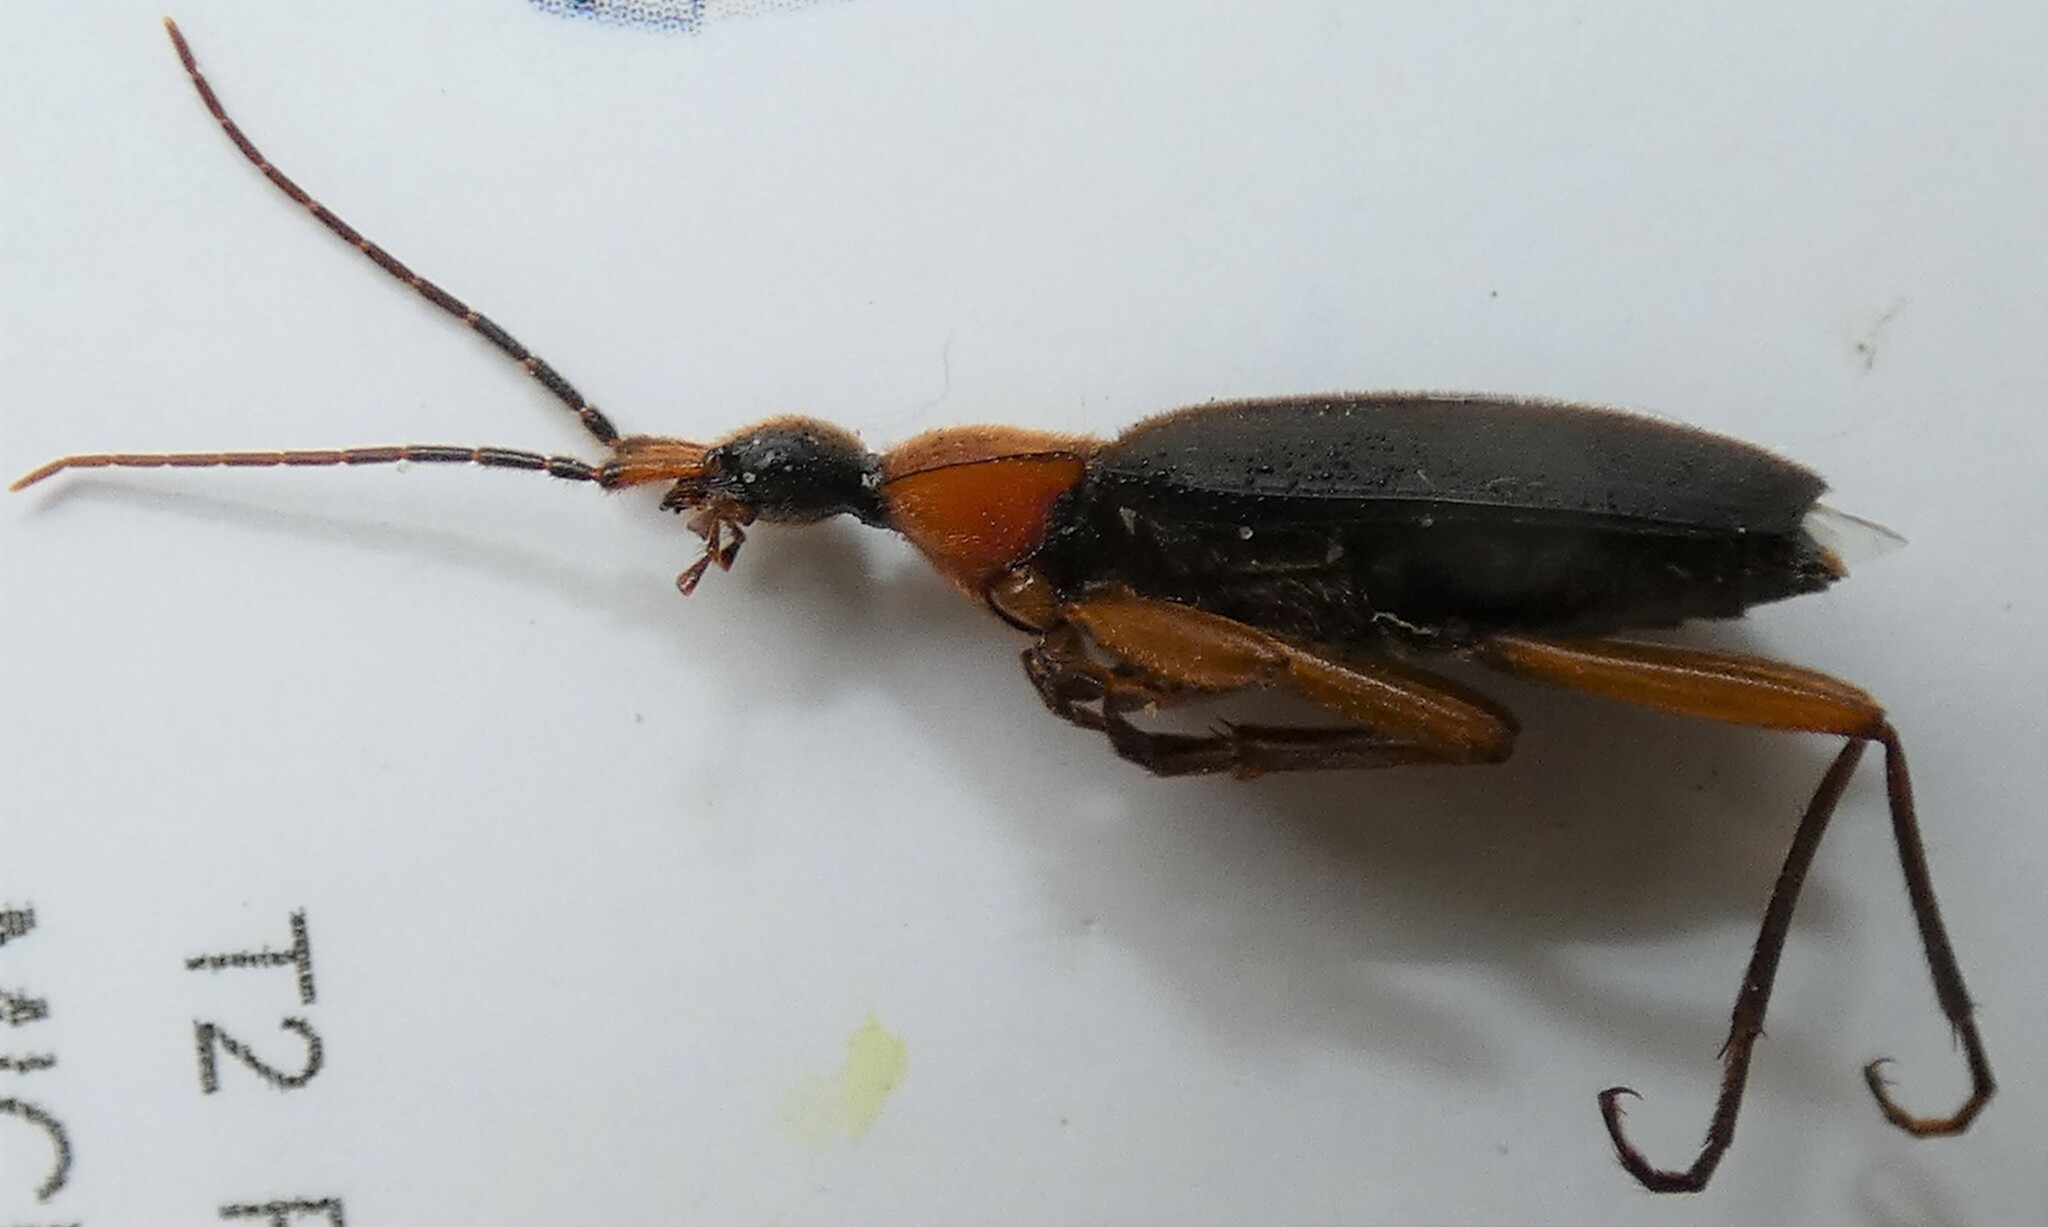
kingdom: Animalia
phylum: Arthropoda
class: Insecta
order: Coleoptera
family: Carabidae
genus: Galerita
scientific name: Galerita lecontei
